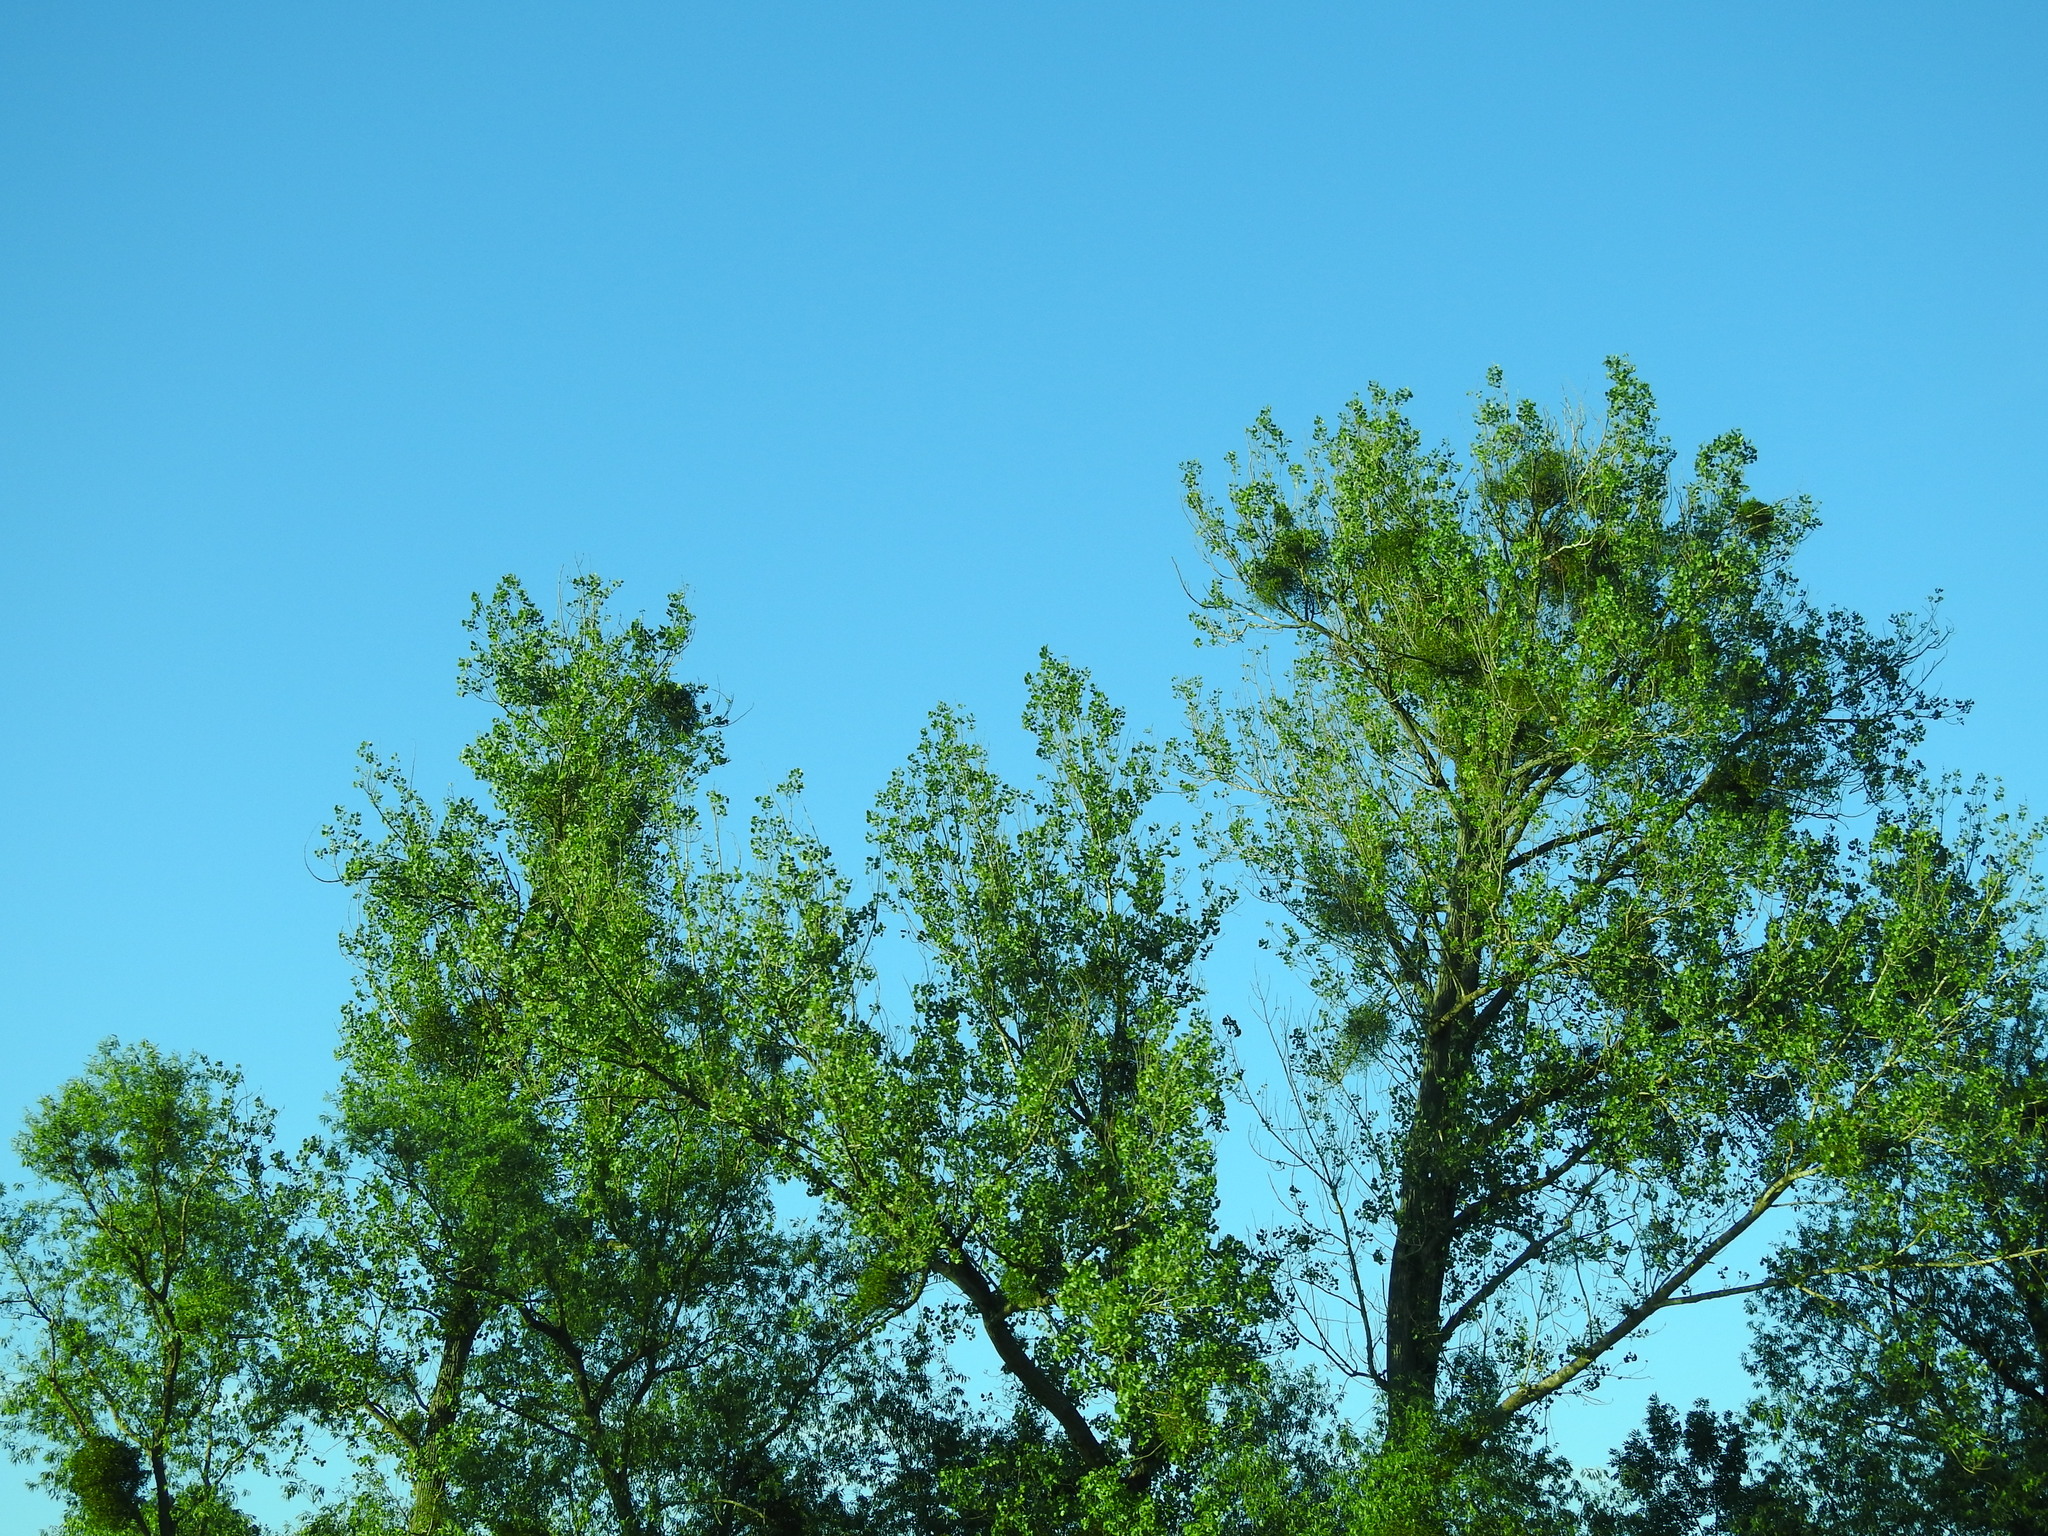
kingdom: Plantae
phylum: Tracheophyta
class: Magnoliopsida
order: Santalales
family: Viscaceae
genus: Viscum
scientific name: Viscum album
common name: Mistletoe
